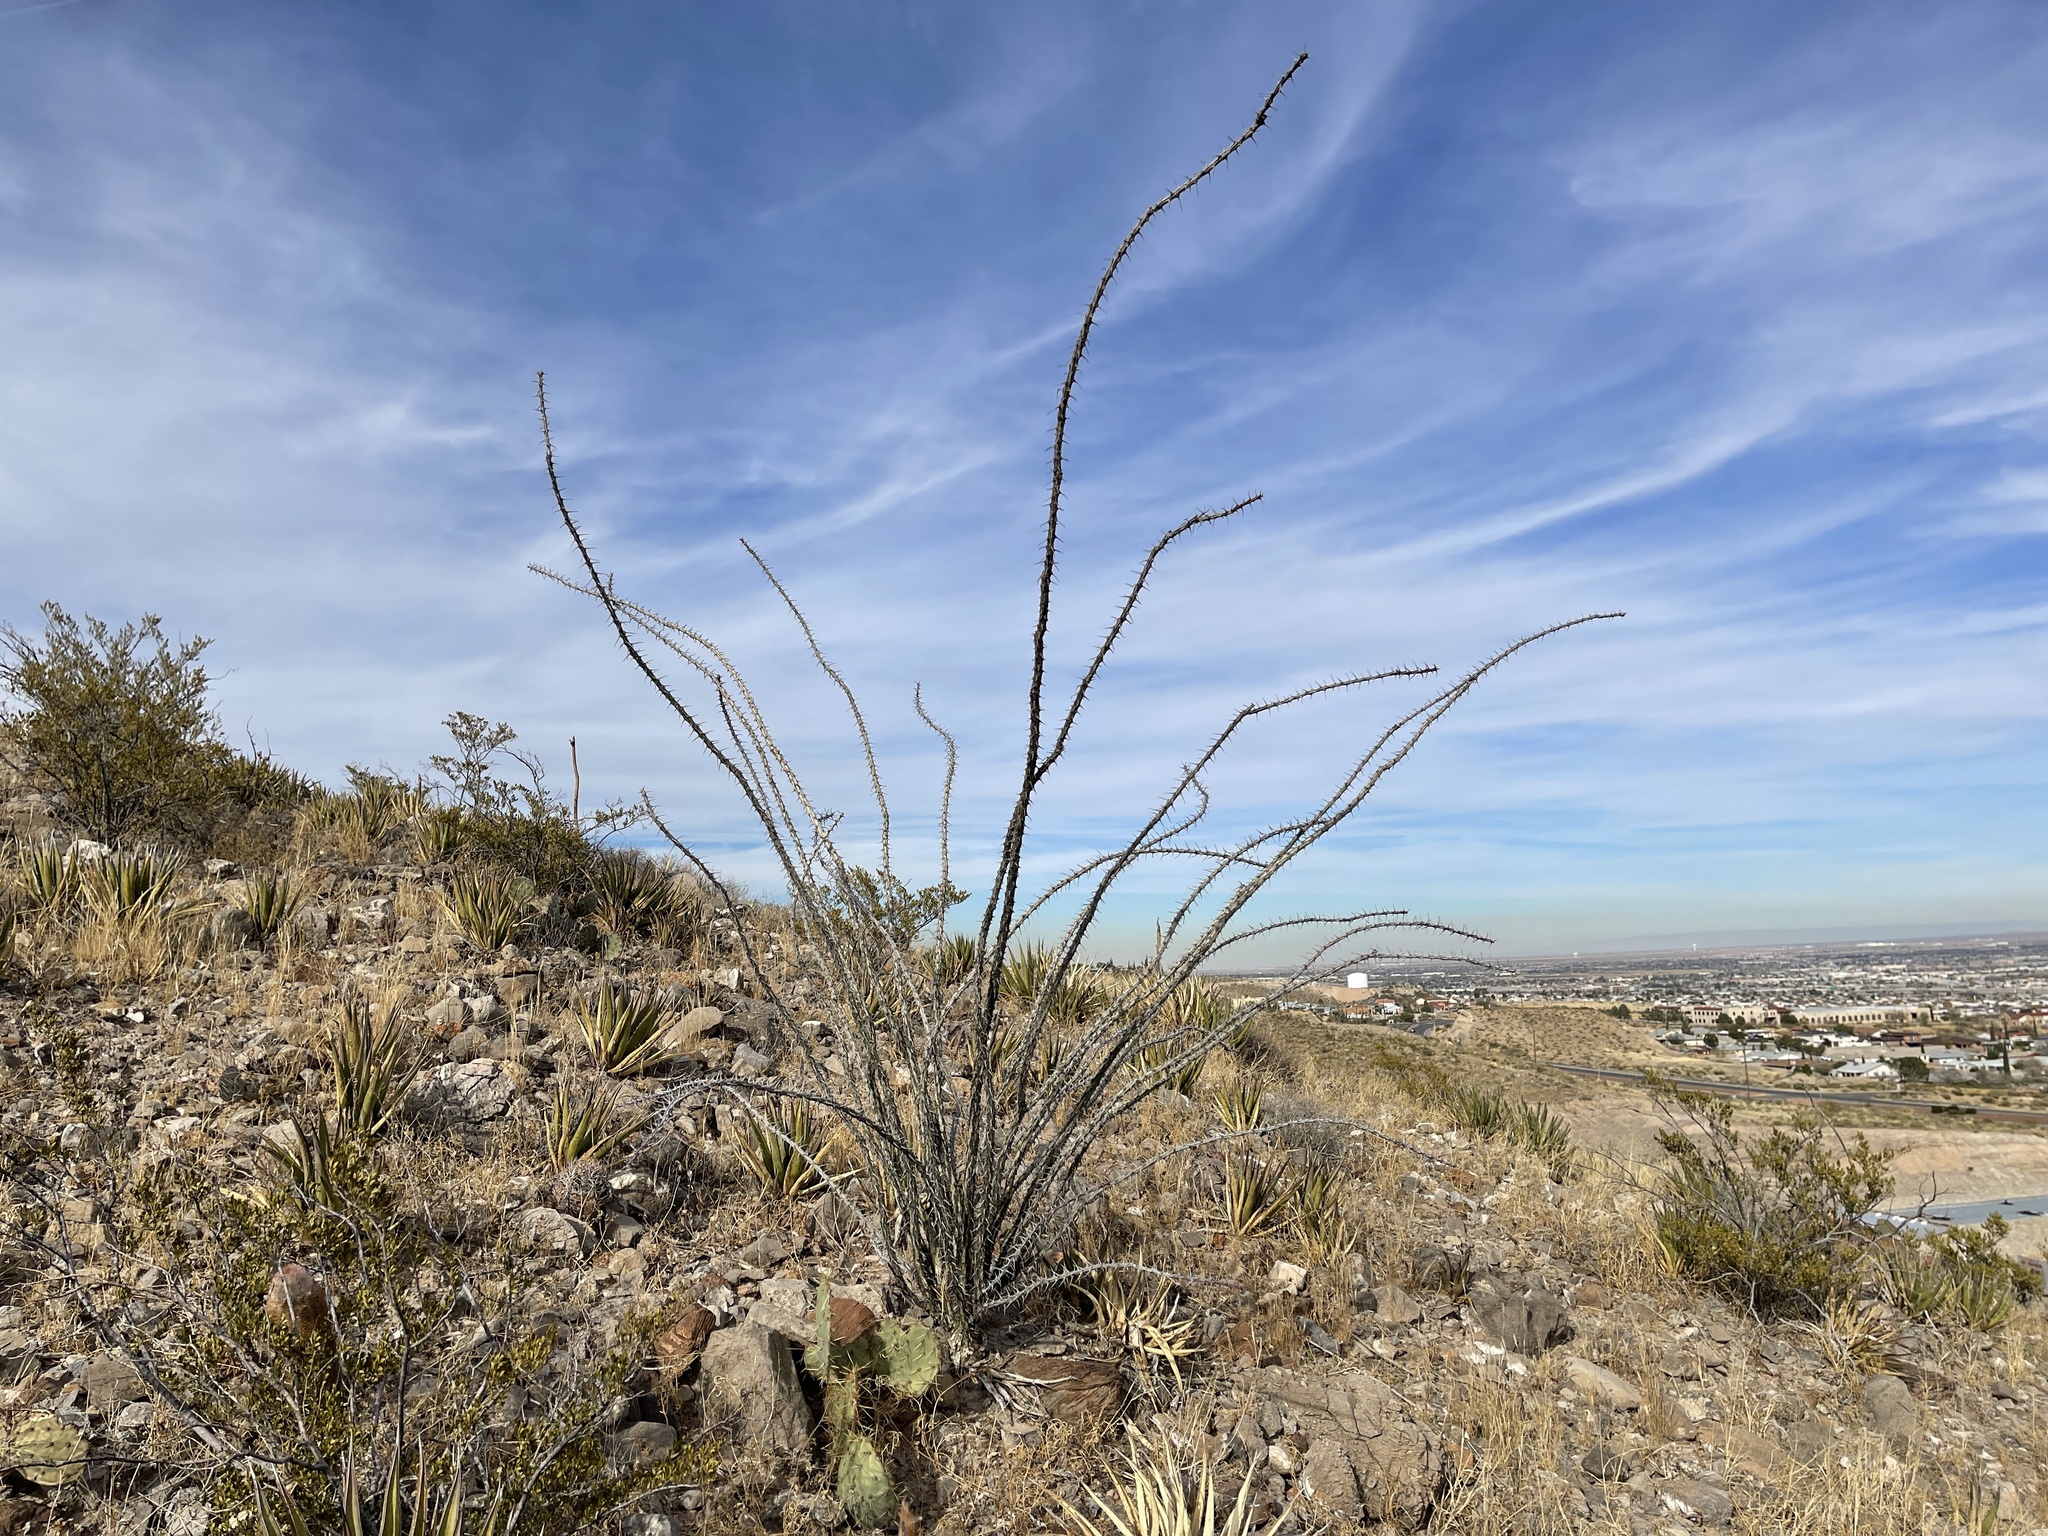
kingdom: Plantae
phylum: Tracheophyta
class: Magnoliopsida
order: Ericales
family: Fouquieriaceae
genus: Fouquieria
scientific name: Fouquieria splendens
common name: Vine-cactus
